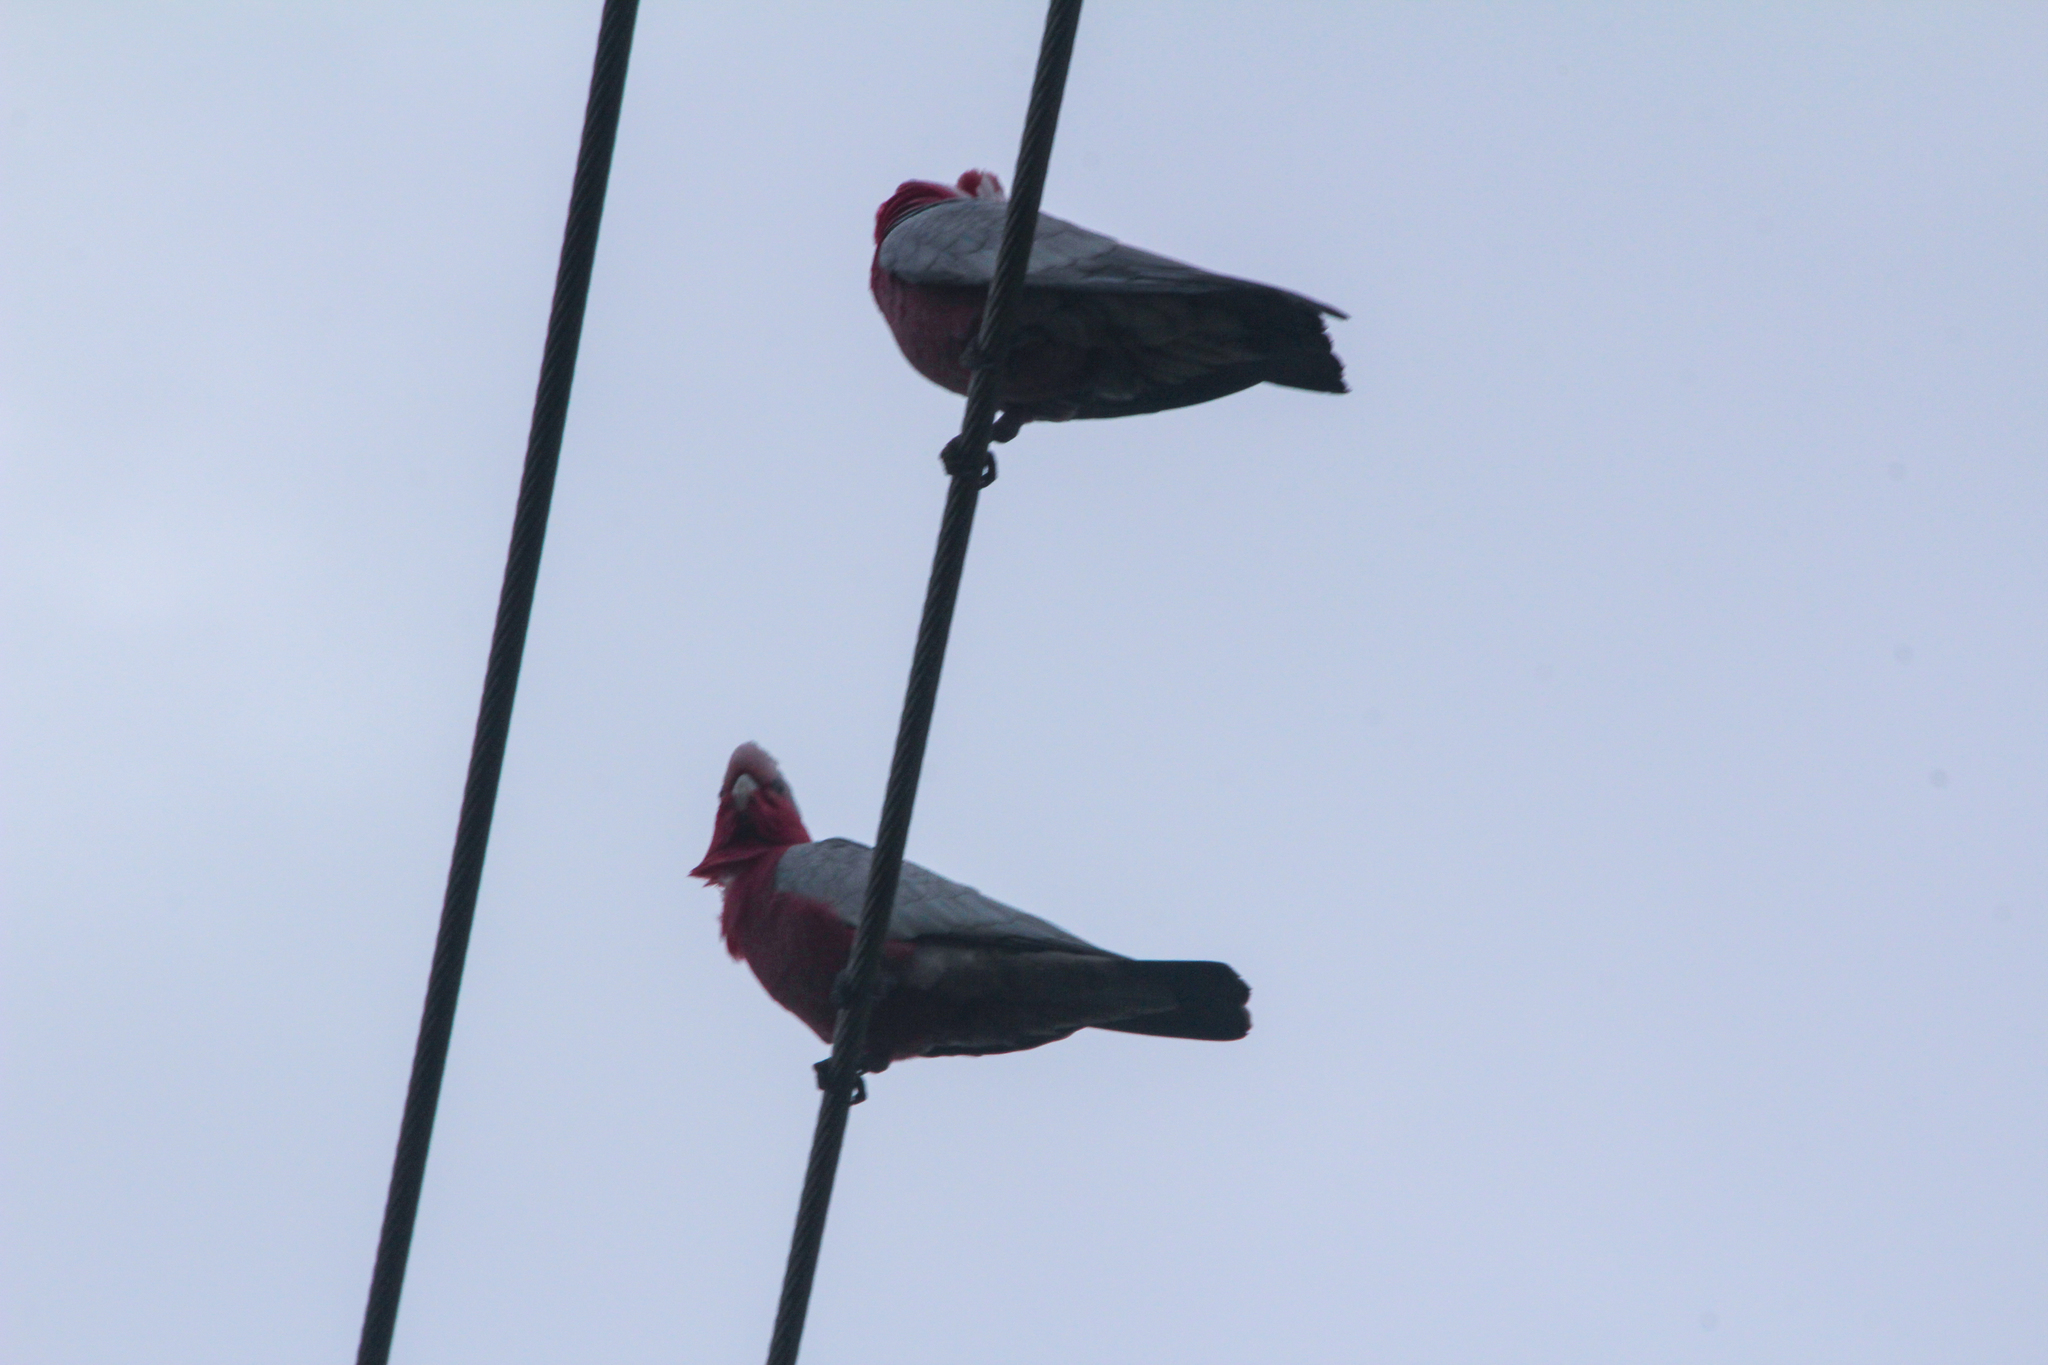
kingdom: Animalia
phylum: Chordata
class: Aves
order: Psittaciformes
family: Psittacidae
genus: Eolophus
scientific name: Eolophus roseicapilla
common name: Galah
